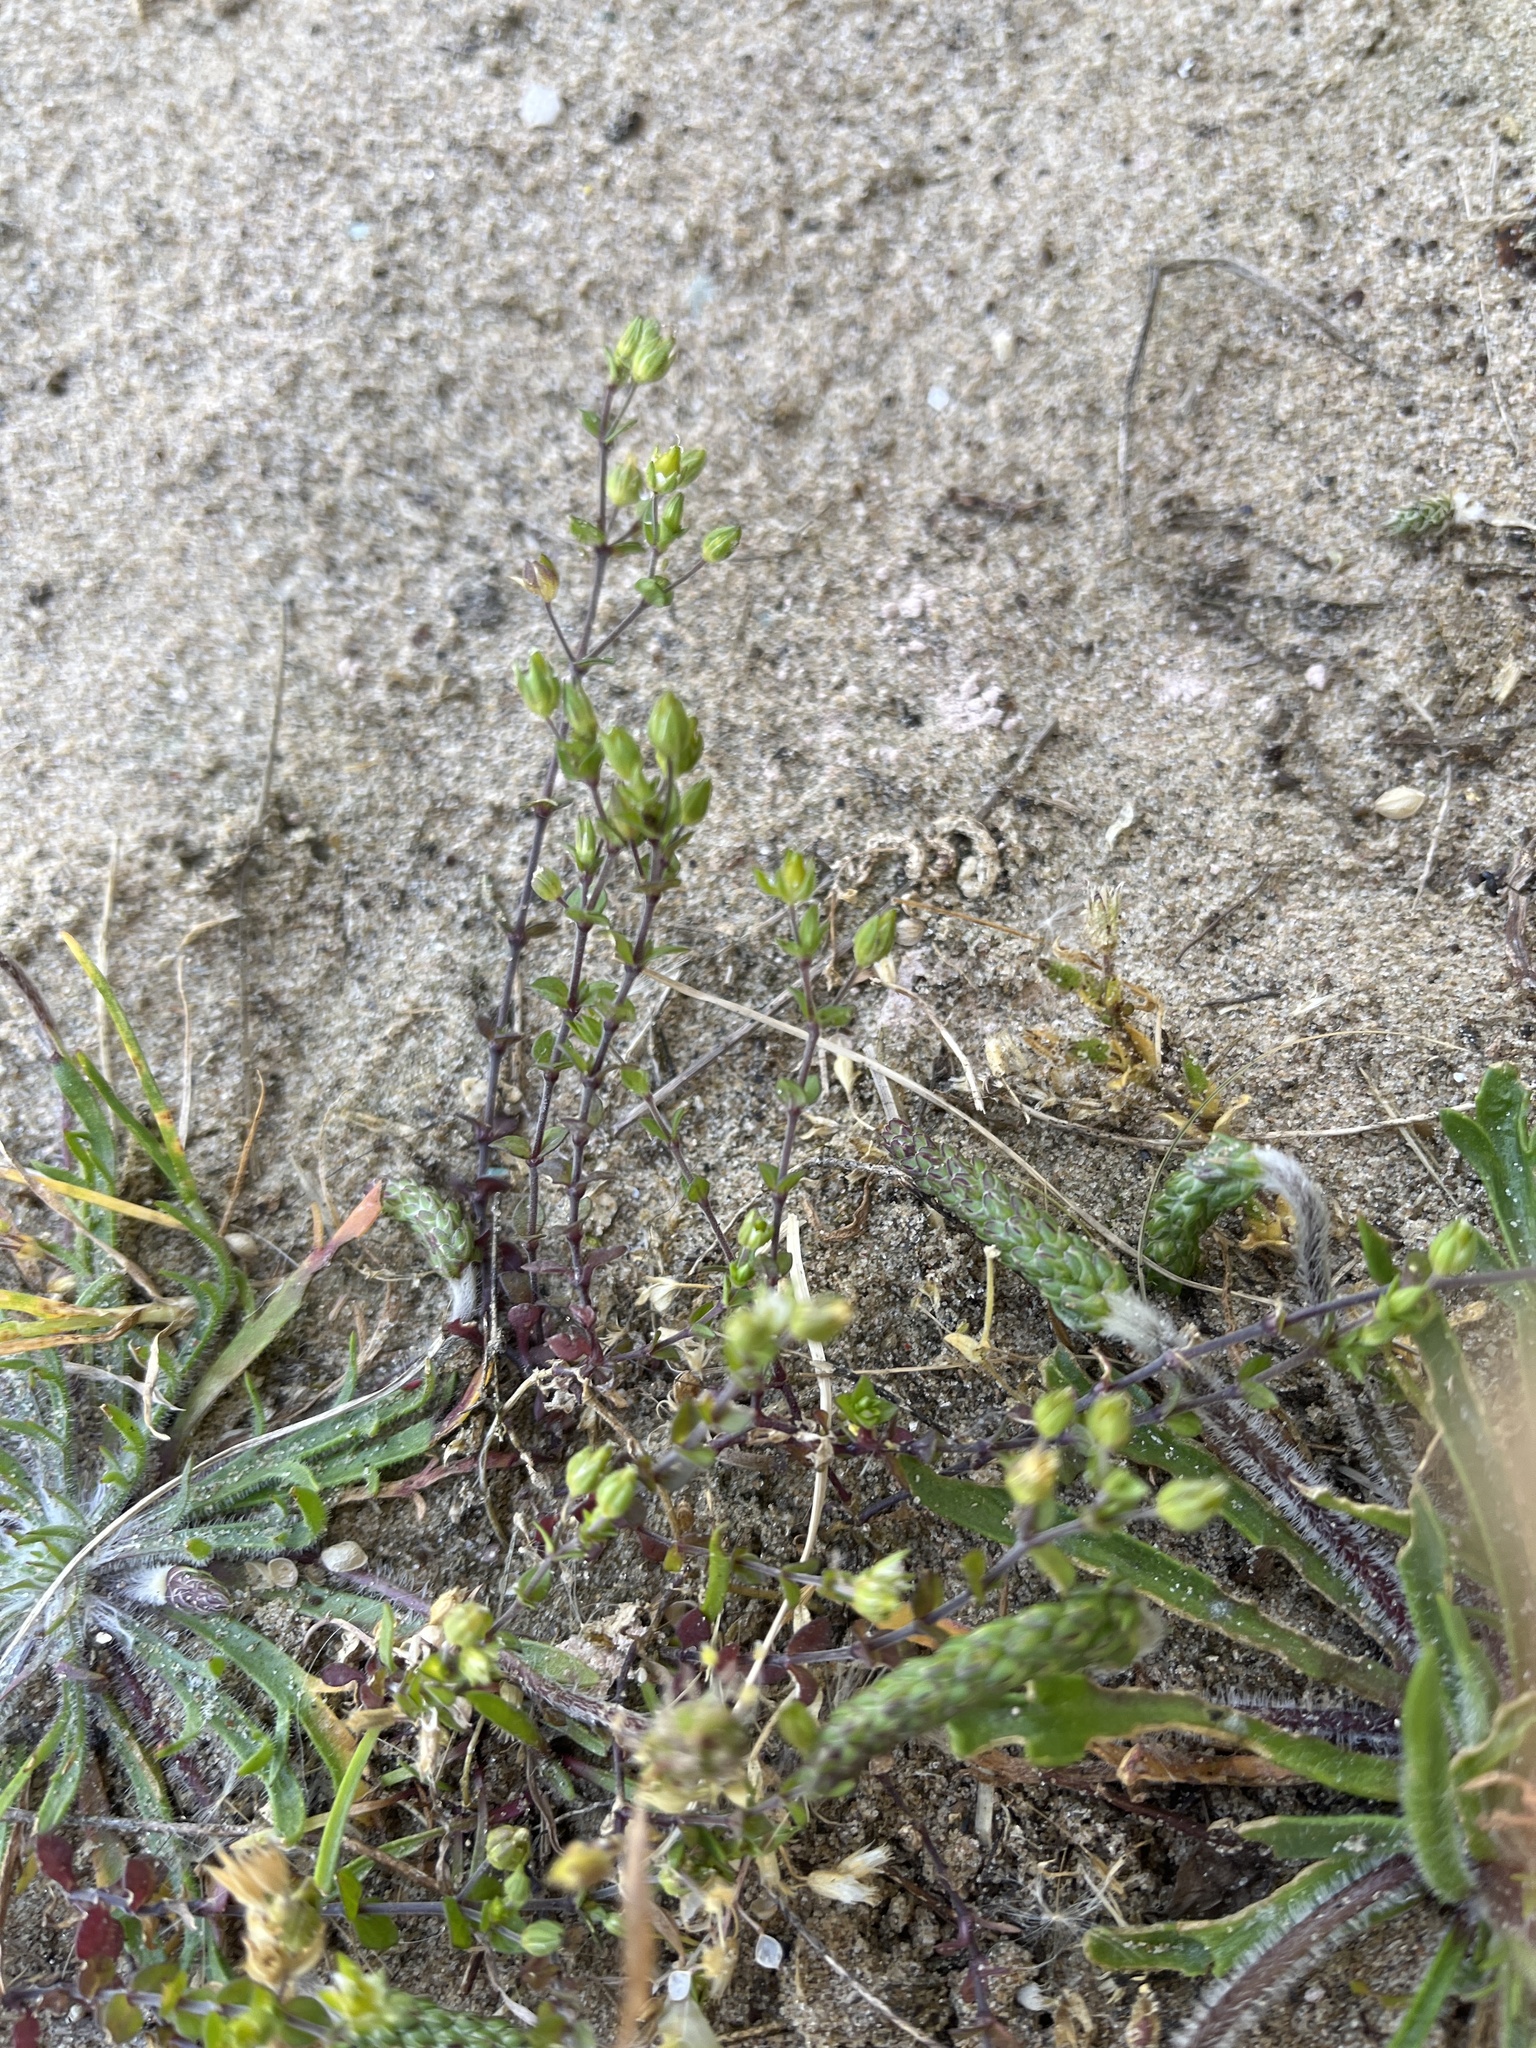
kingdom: Plantae
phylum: Tracheophyta
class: Magnoliopsida
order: Caryophyllales
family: Caryophyllaceae
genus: Arenaria
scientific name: Arenaria serpyllifolia
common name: Thyme-leaved sandwort
